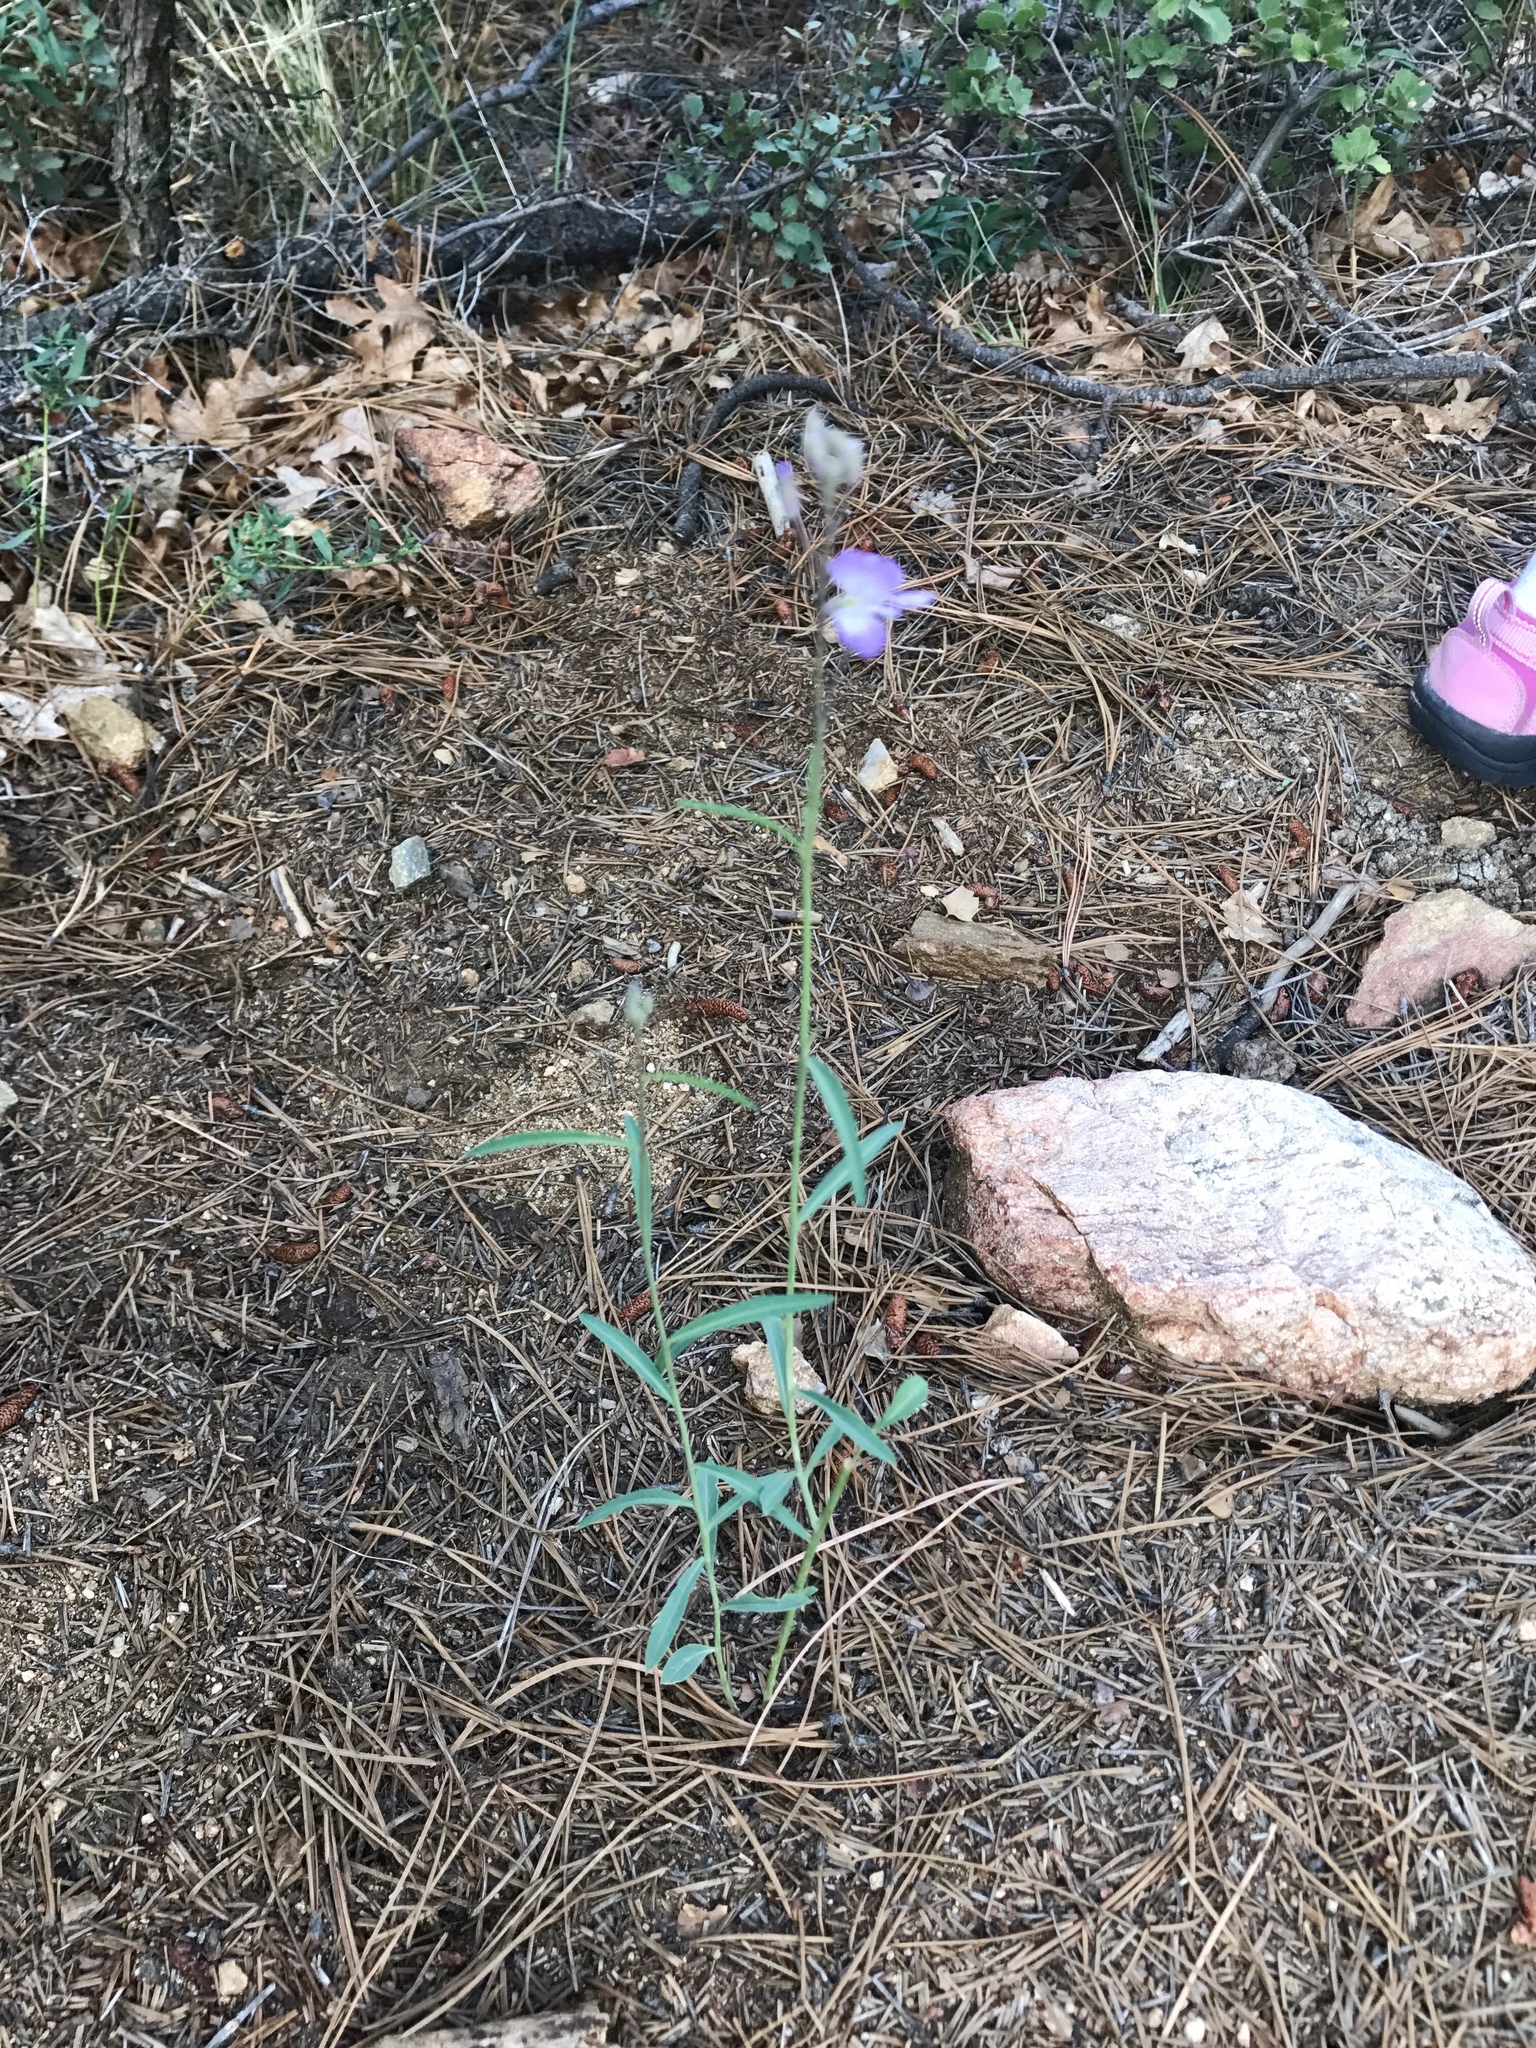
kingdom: Plantae
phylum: Tracheophyta
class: Magnoliopsida
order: Brassicales
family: Brassicaceae
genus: Hesperidanthus
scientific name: Hesperidanthus linearifolius
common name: Slim-leaf plains mustard
